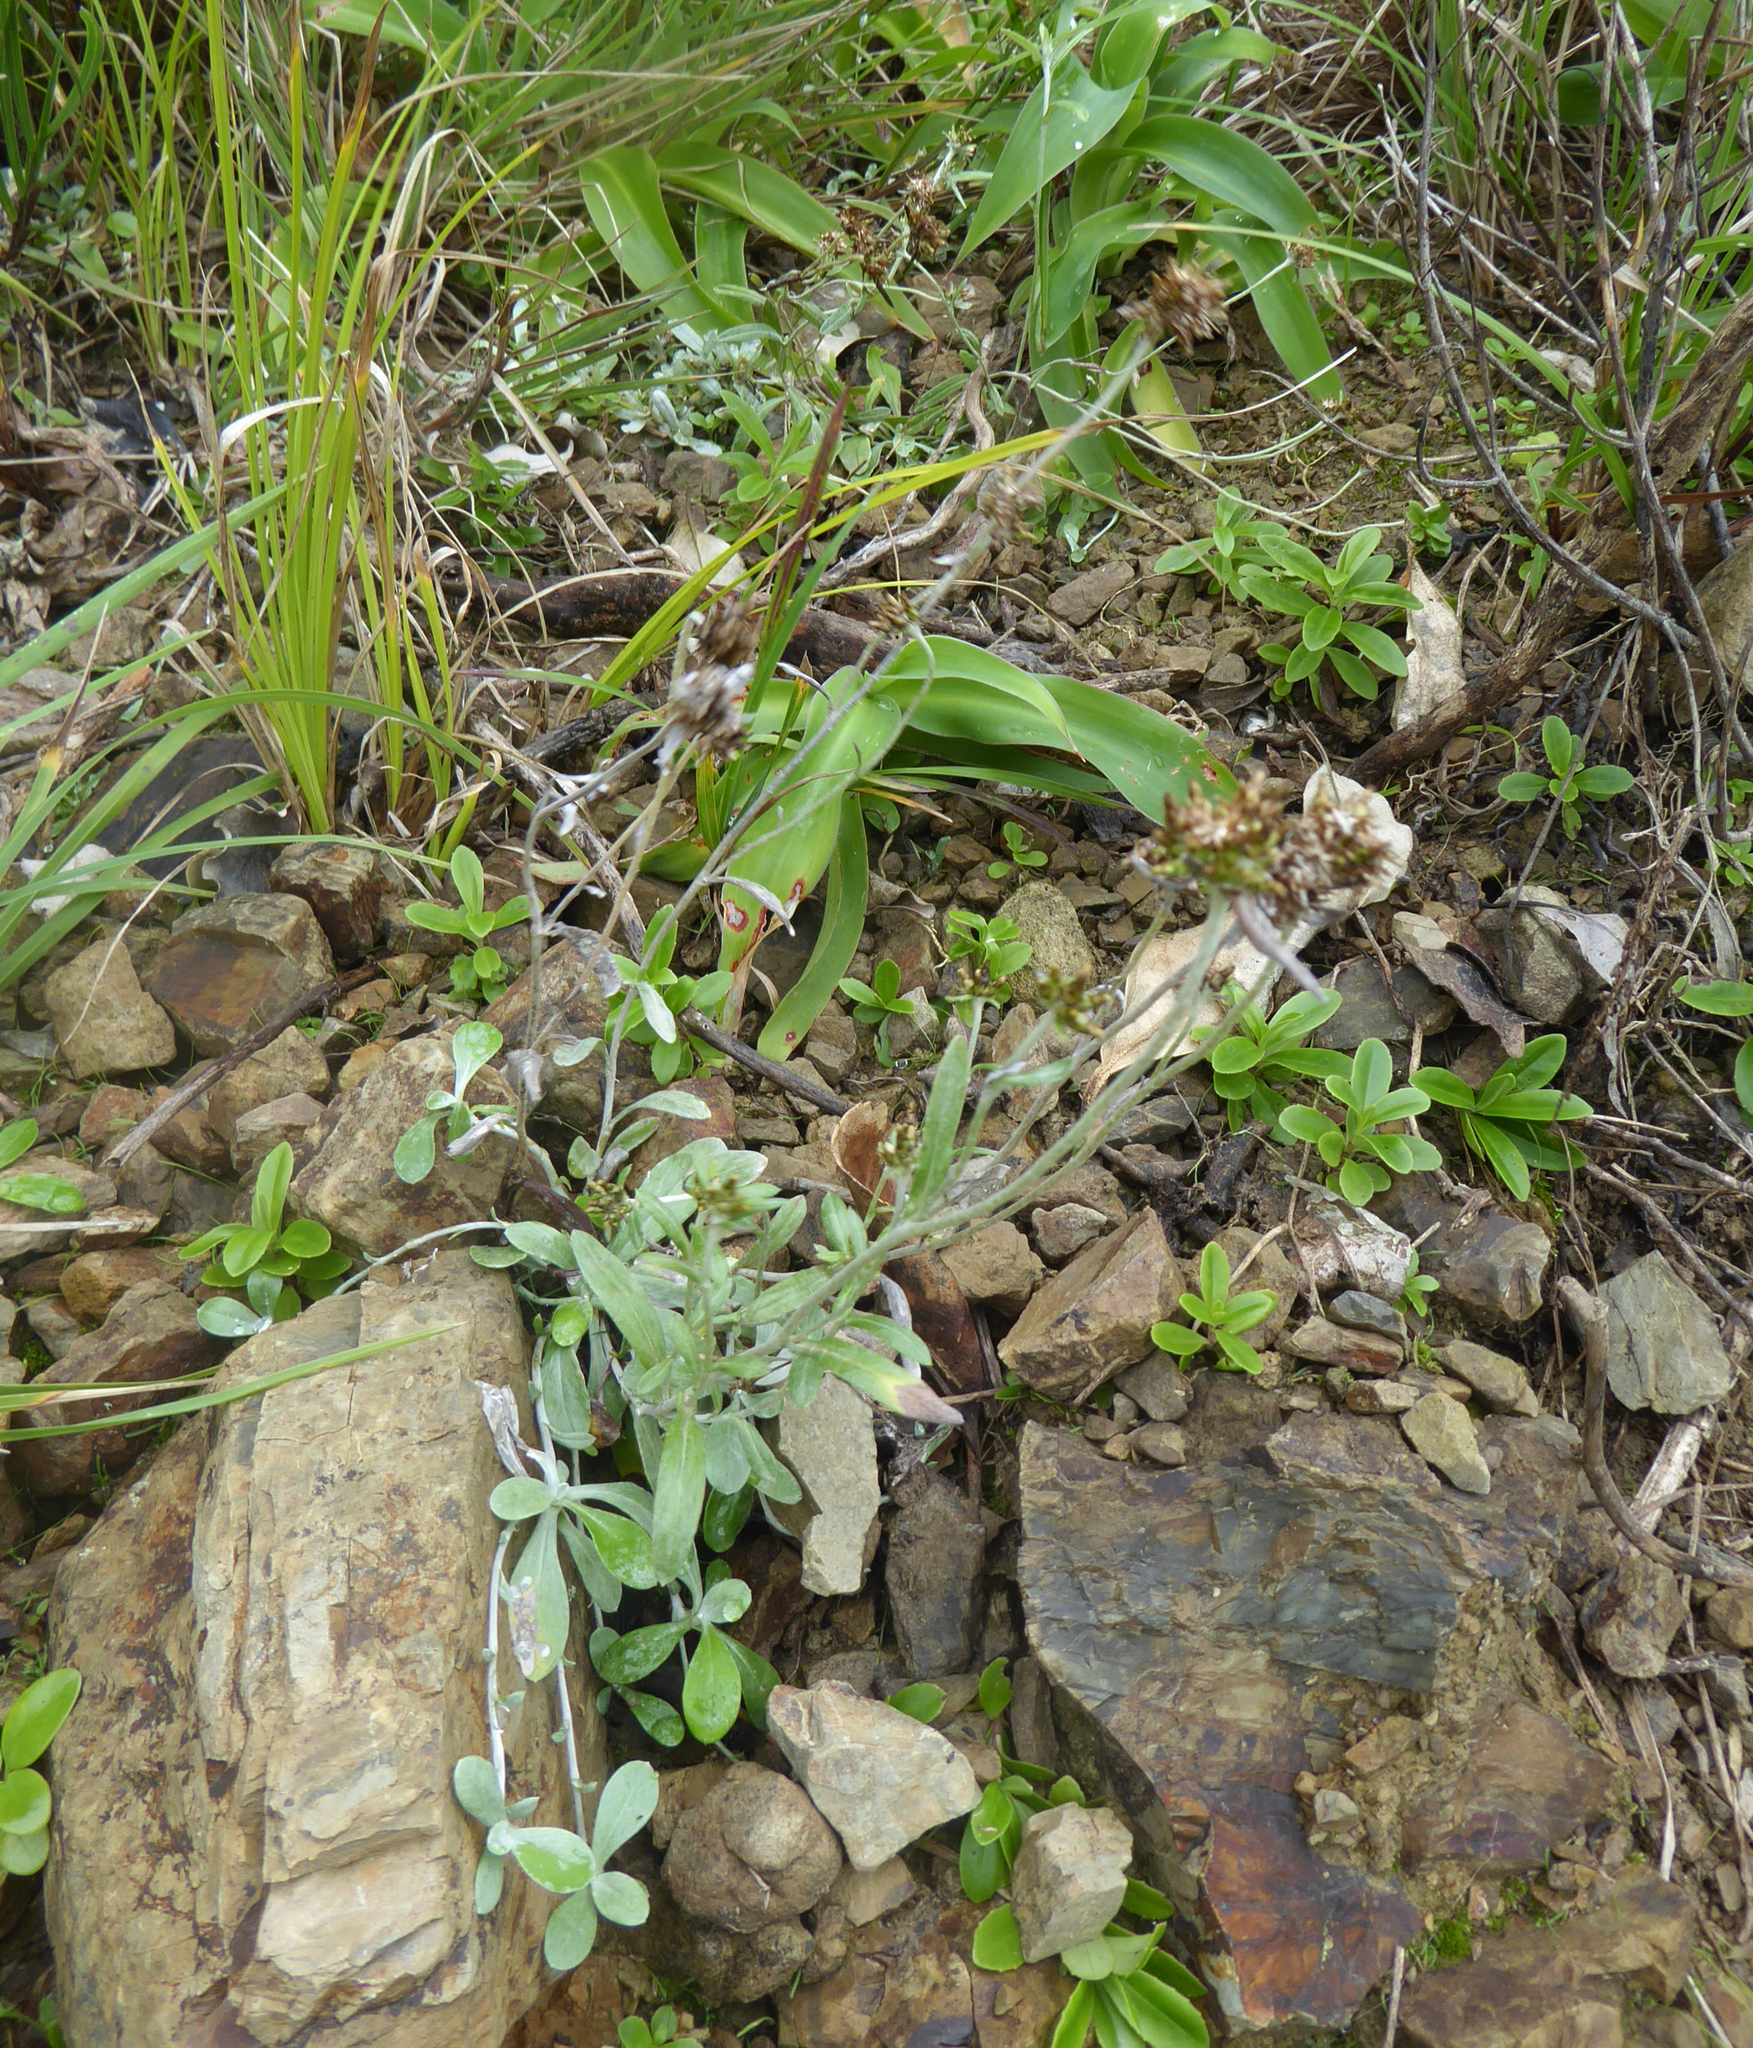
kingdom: Plantae
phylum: Tracheophyta
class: Magnoliopsida
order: Asterales
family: Asteraceae
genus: Euchiton
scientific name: Euchiton audax
